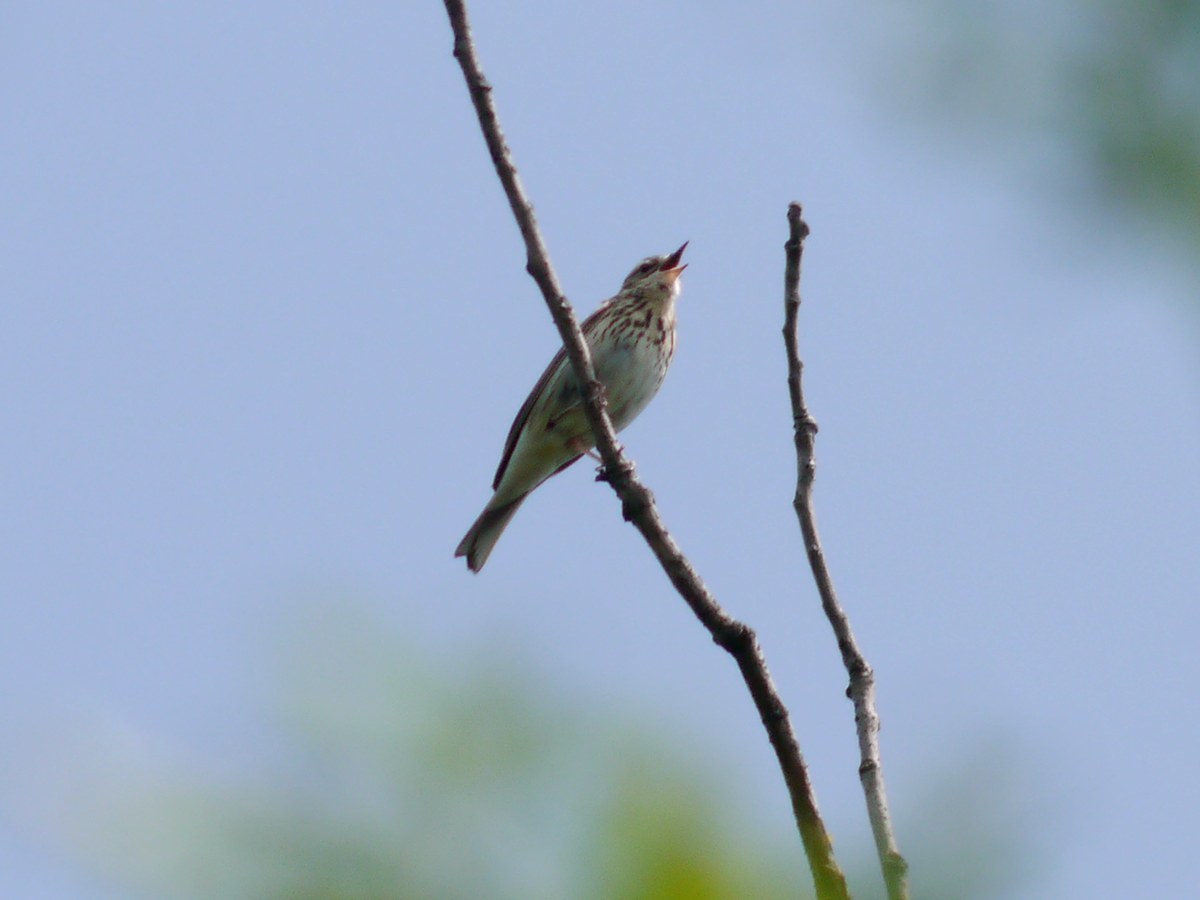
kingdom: Animalia
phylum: Chordata
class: Aves
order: Passeriformes
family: Motacillidae
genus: Anthus
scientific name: Anthus trivialis
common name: Tree pipit
